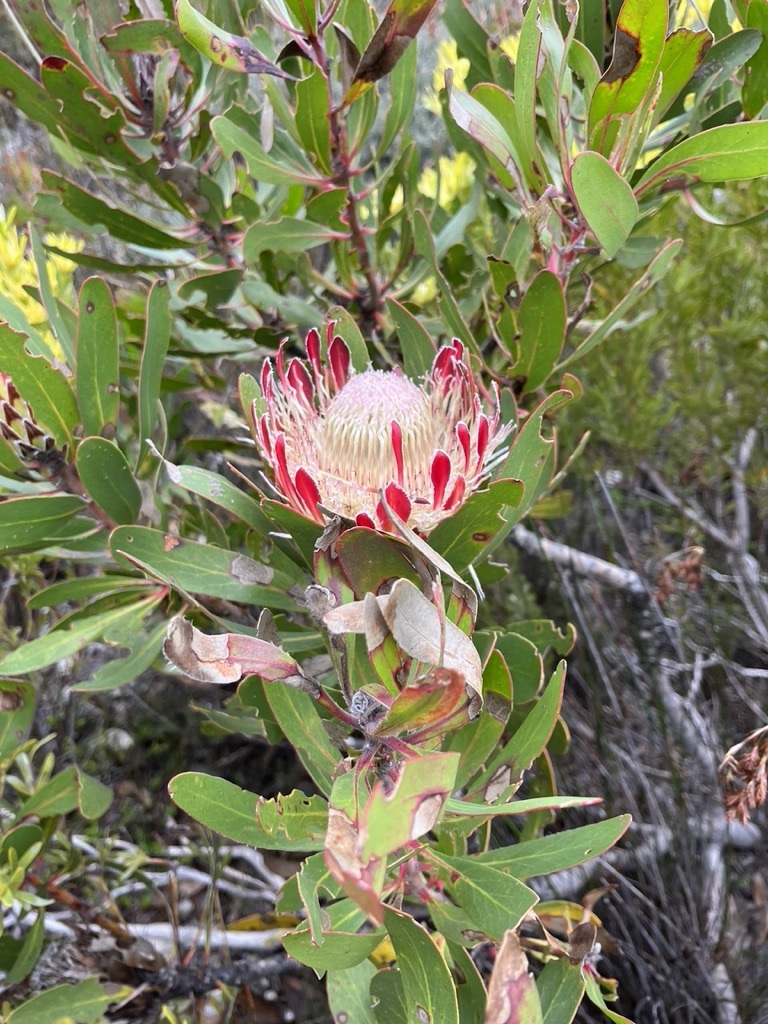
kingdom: Plantae
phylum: Tracheophyta
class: Magnoliopsida
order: Proteales
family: Proteaceae
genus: Protea
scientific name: Protea obtusifolia
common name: Bredasdorp sugarbush
